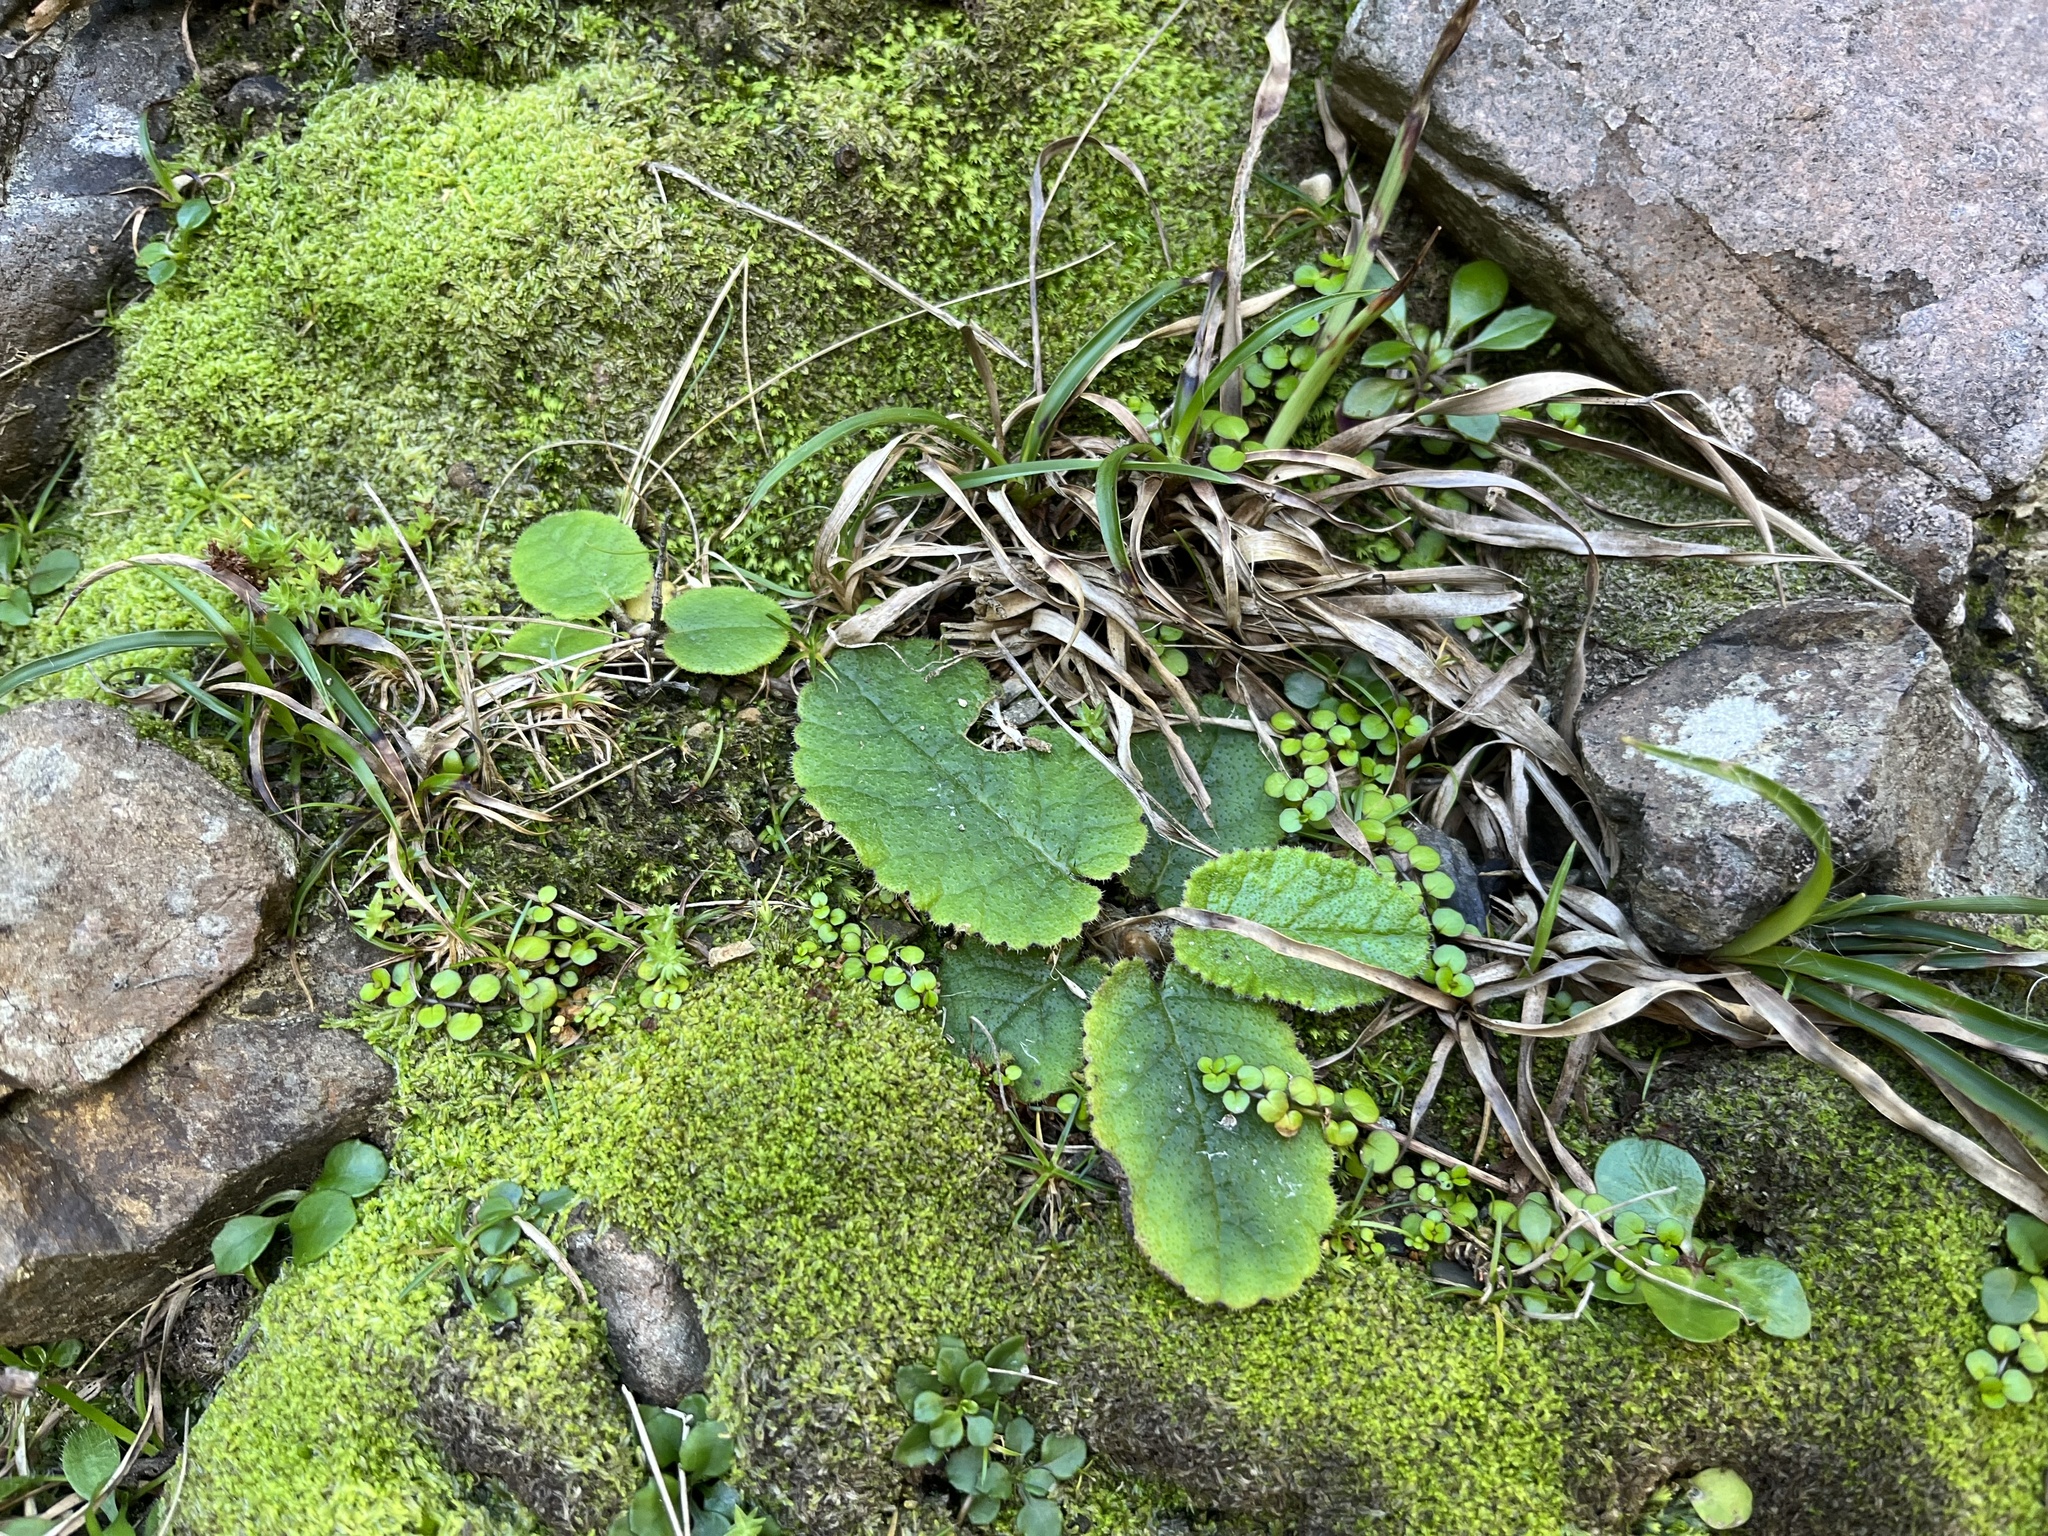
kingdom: Plantae
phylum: Tracheophyta
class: Magnoliopsida
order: Asterales
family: Asteraceae
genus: Brachyglottis
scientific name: Brachyglottis lagopus
